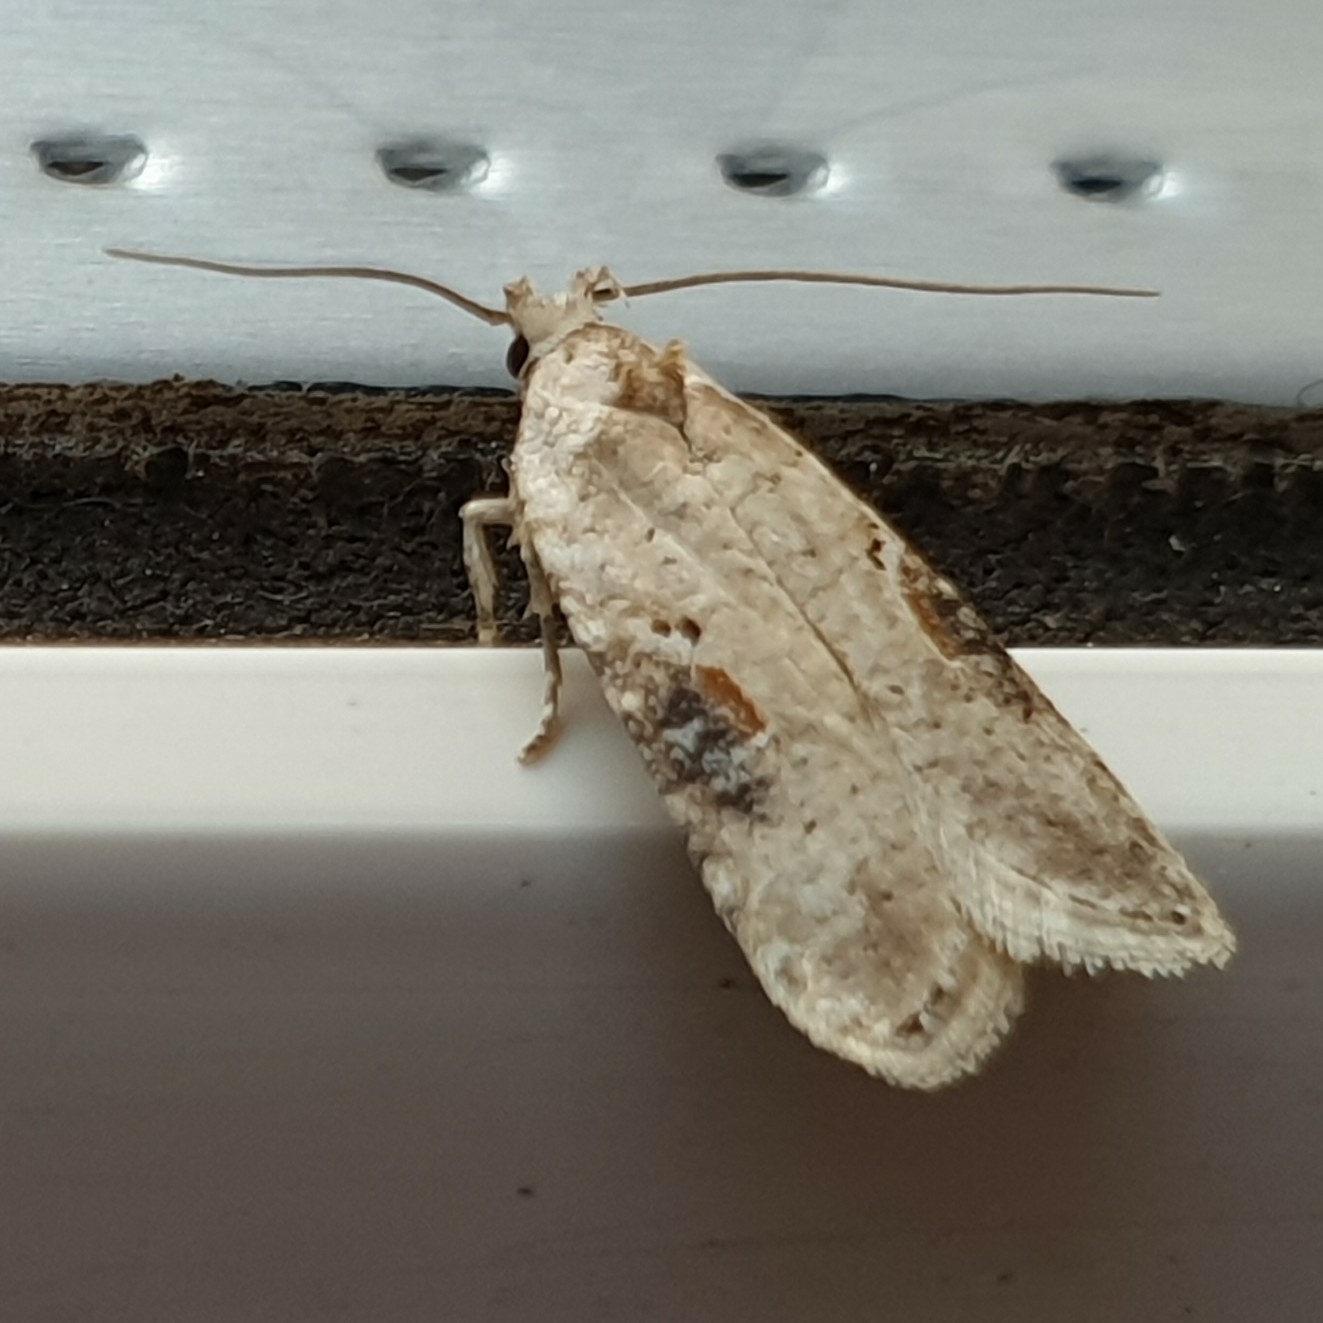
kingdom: Animalia
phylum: Arthropoda
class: Insecta
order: Lepidoptera
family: Depressariidae
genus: Agonopterix
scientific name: Agonopterix alstroemeriana
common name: Moth
